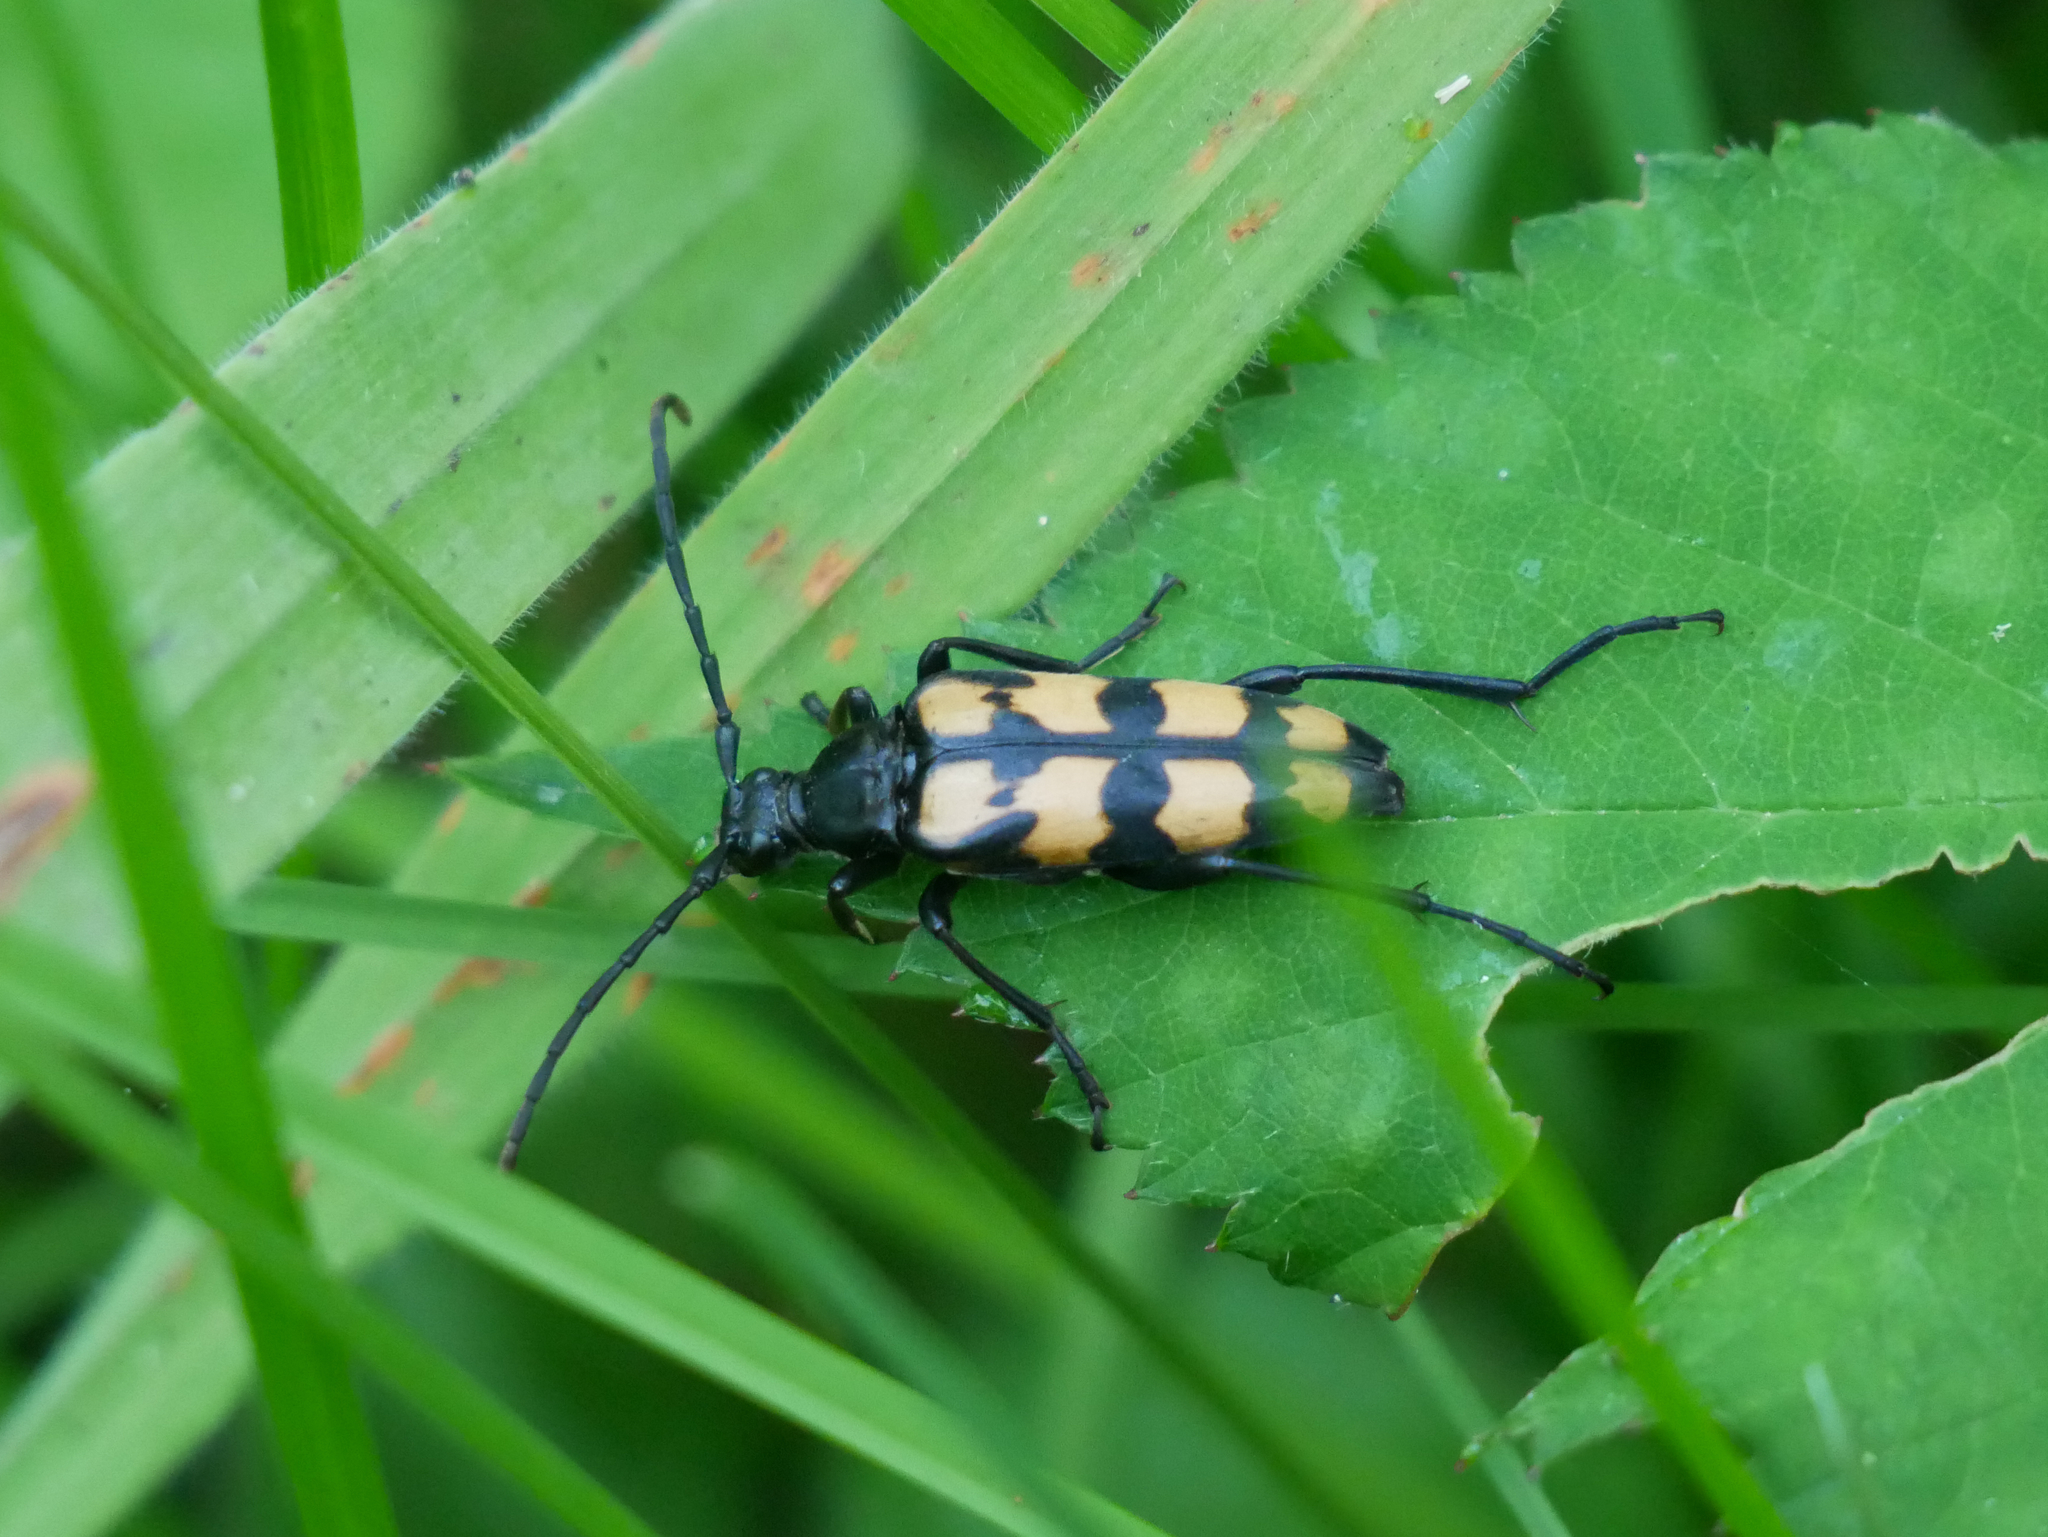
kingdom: Animalia
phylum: Arthropoda
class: Insecta
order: Coleoptera
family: Cerambycidae
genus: Leptura
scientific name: Leptura quadrifasciata
